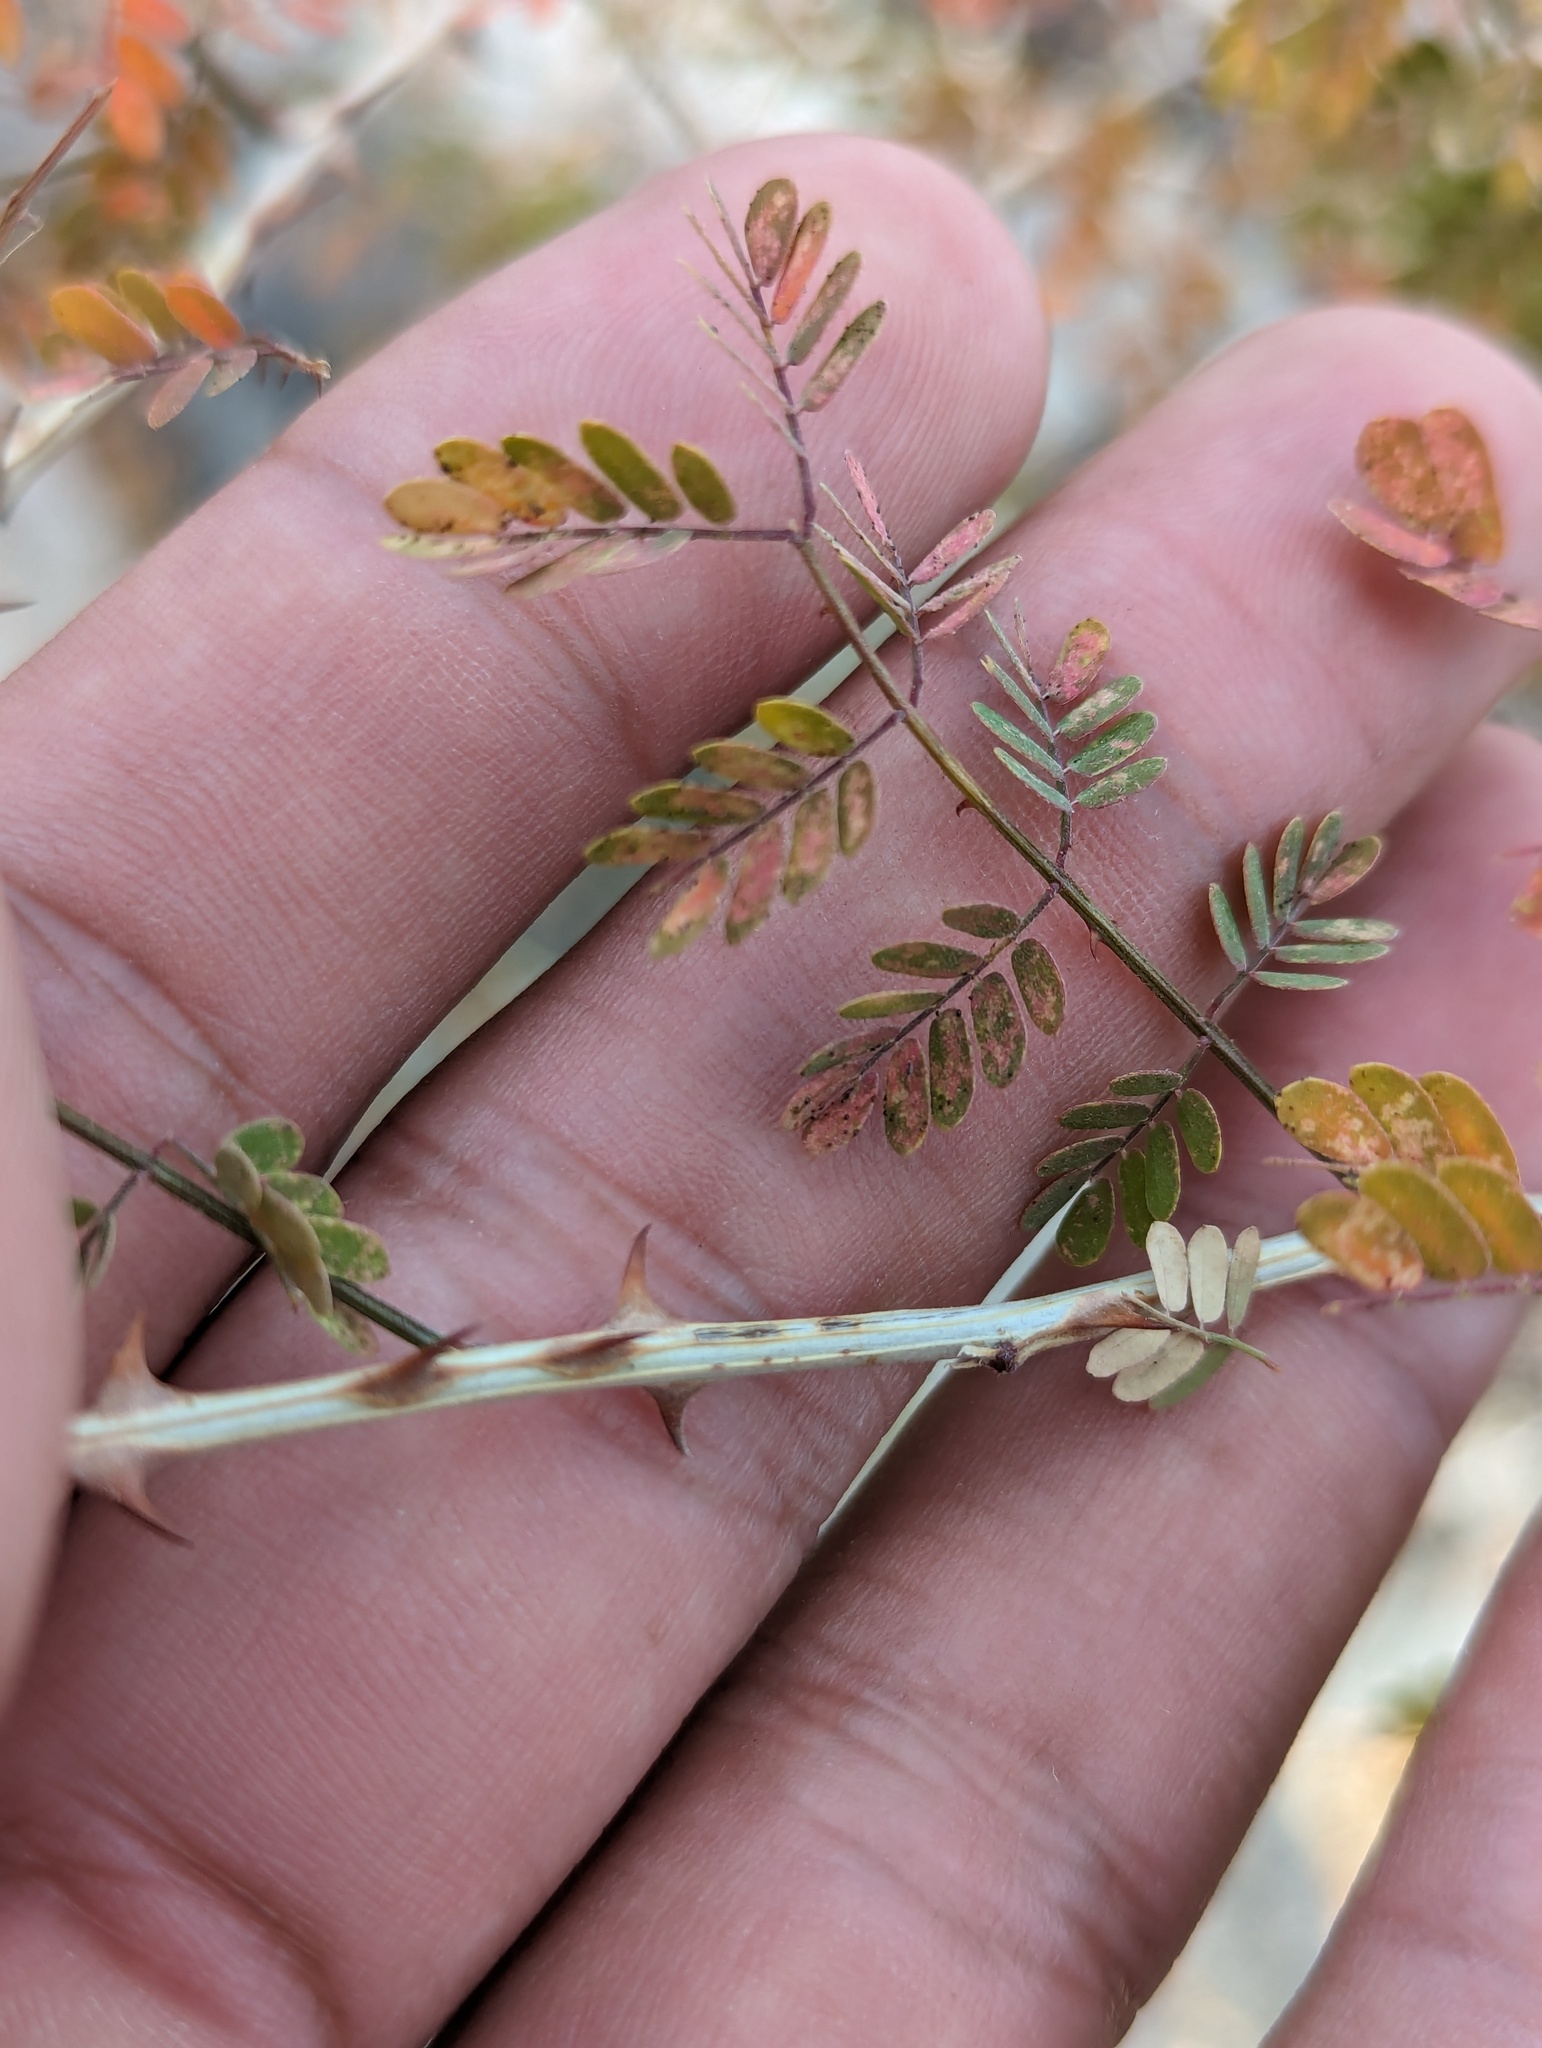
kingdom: Plantae
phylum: Tracheophyta
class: Magnoliopsida
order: Fabales
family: Fabaceae
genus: Mimosa
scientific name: Mimosa distachya
